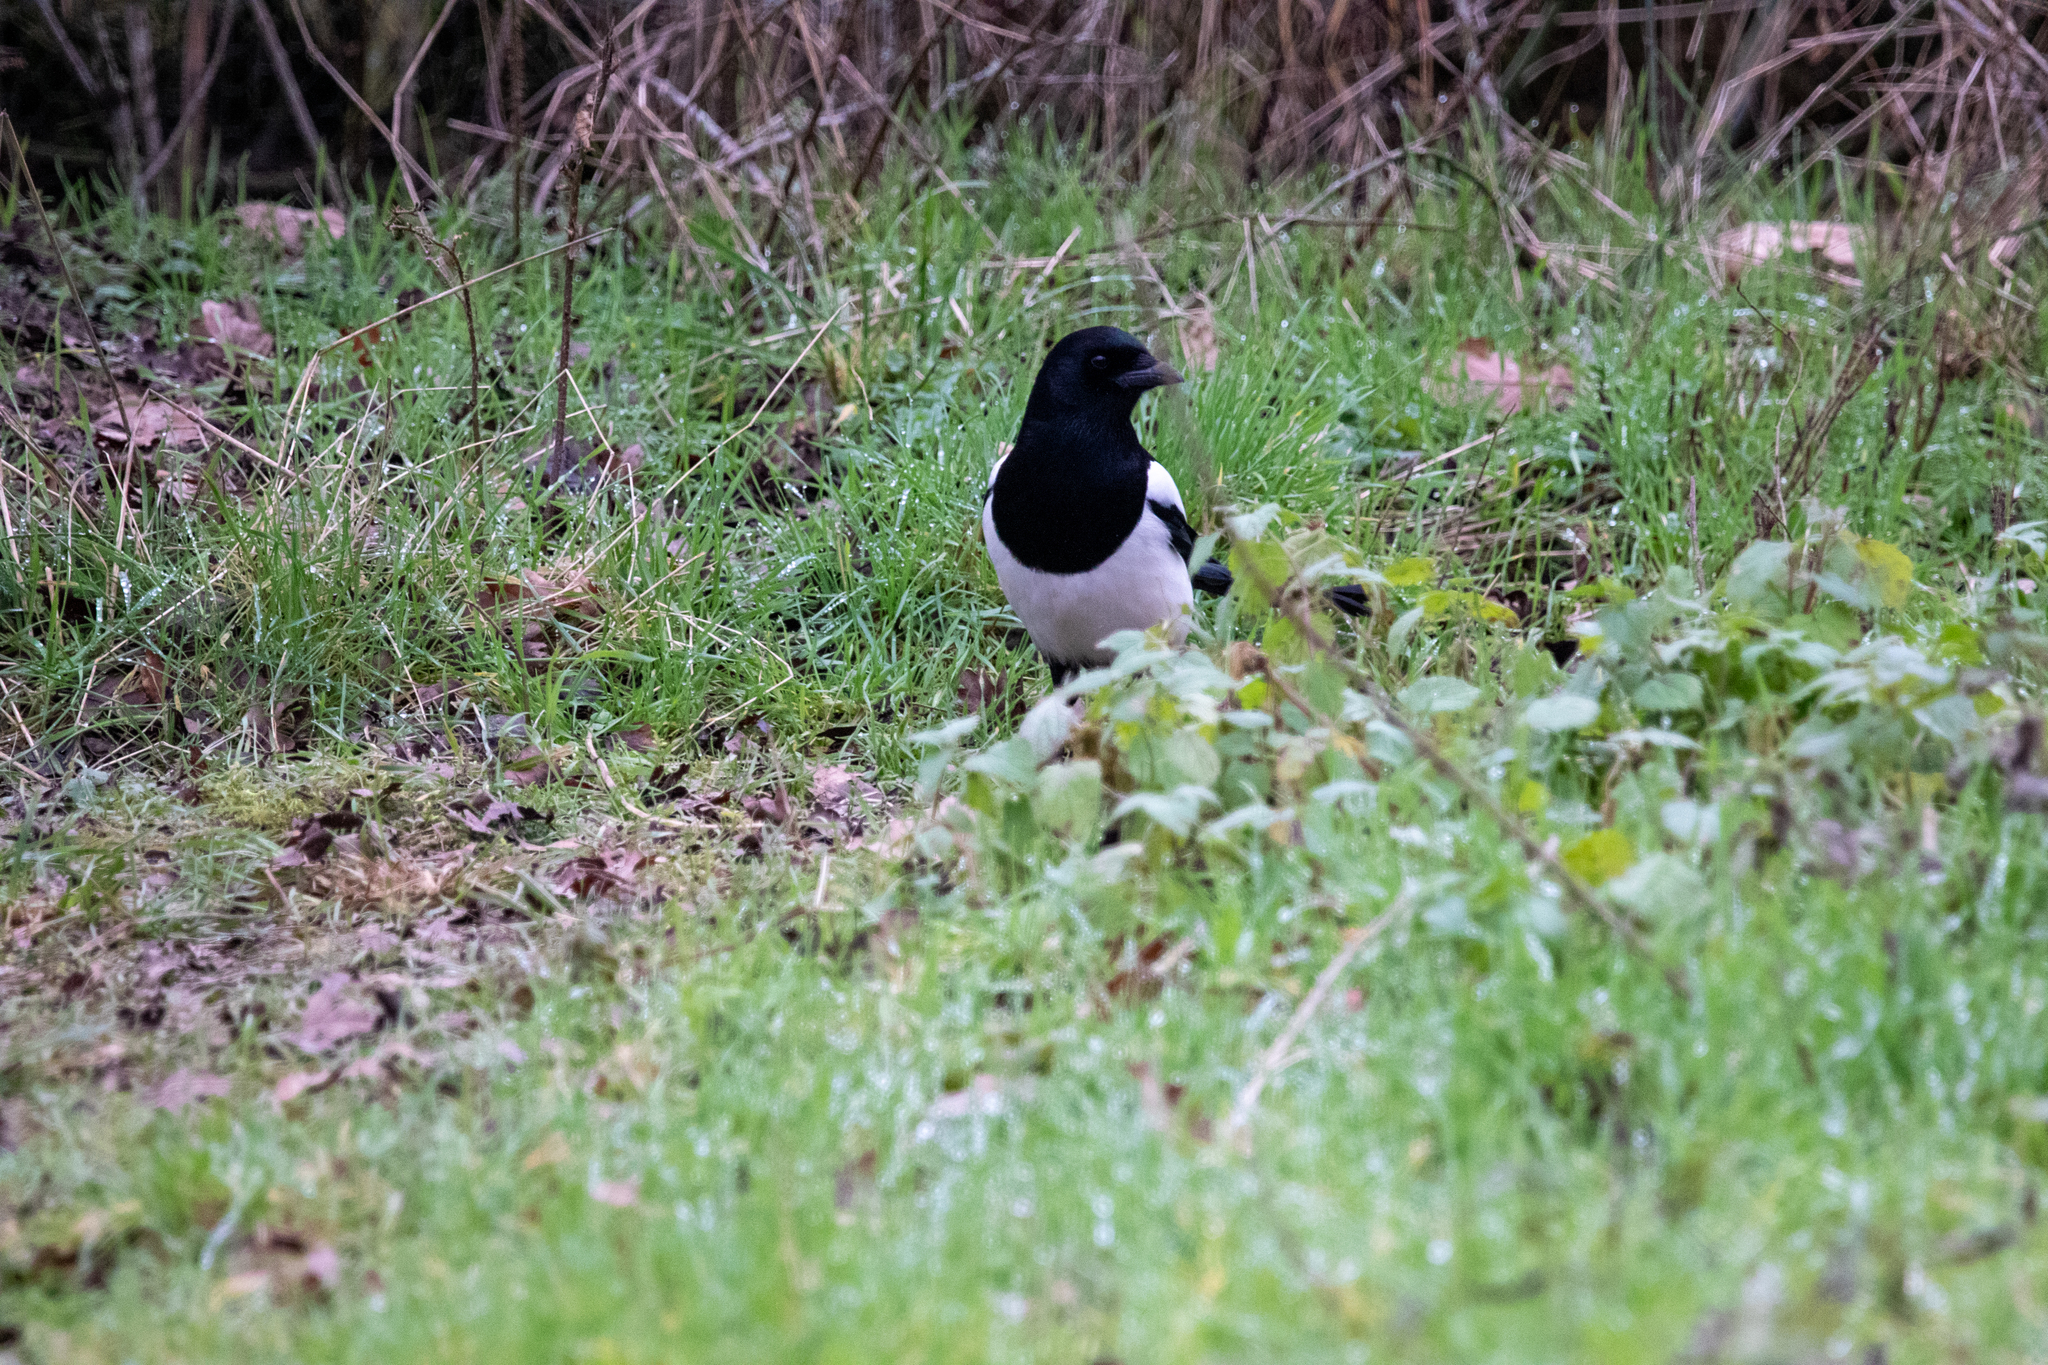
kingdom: Animalia
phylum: Chordata
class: Aves
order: Passeriformes
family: Corvidae
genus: Pica
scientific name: Pica pica
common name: Eurasian magpie
